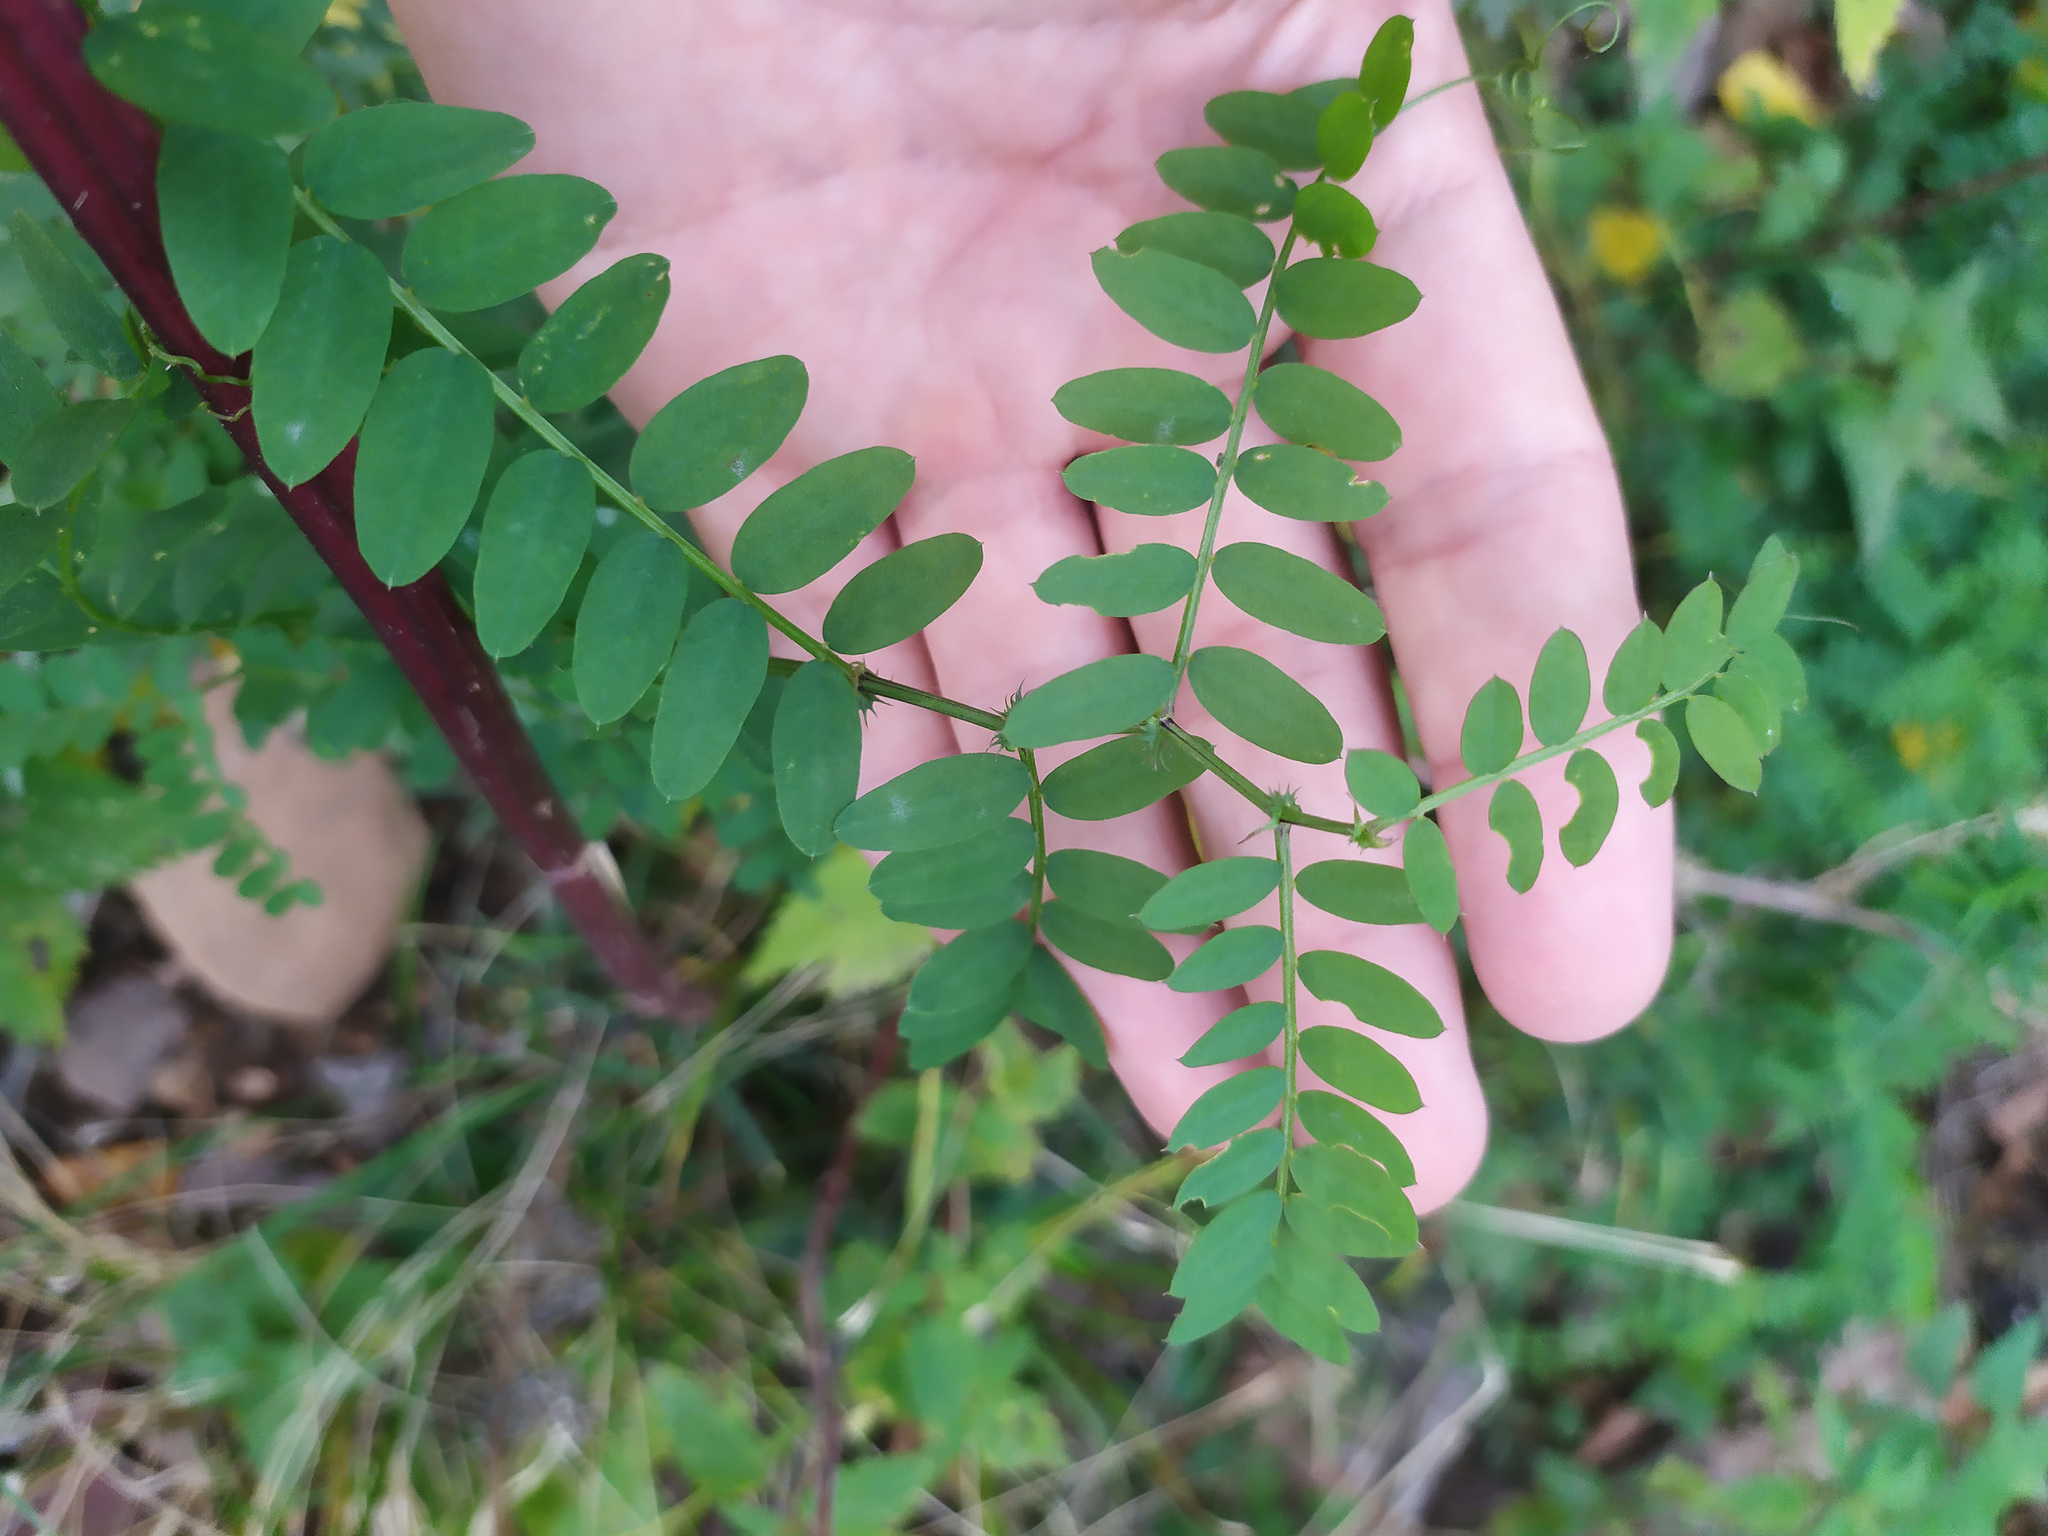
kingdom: Plantae
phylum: Tracheophyta
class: Magnoliopsida
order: Fabales
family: Fabaceae
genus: Vicia
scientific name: Vicia sylvatica
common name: Wood vetch
